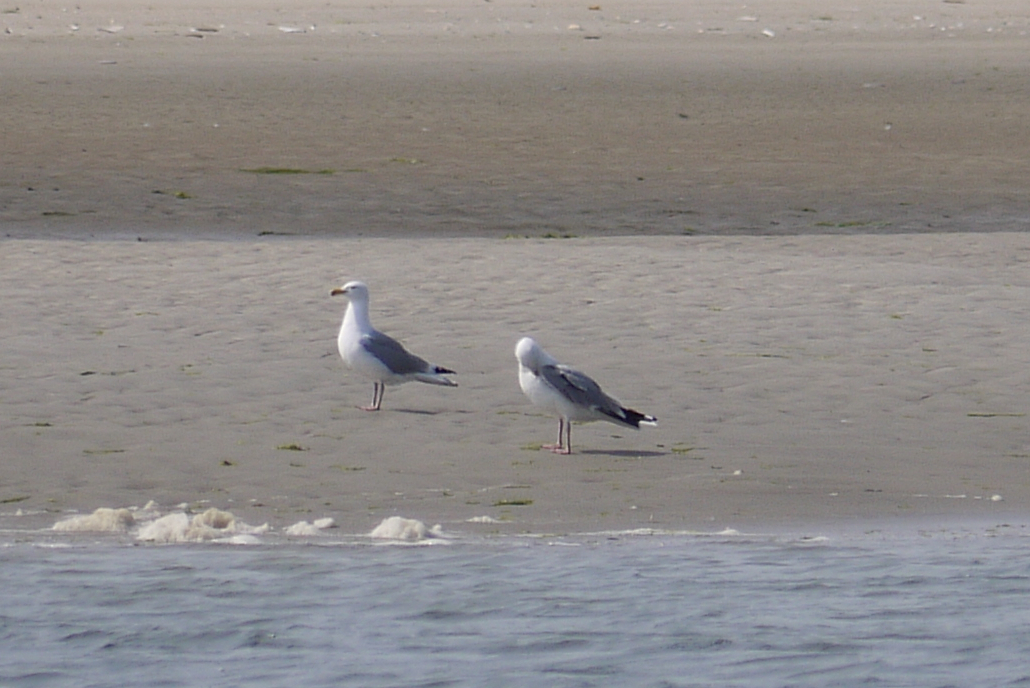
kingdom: Animalia
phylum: Chordata
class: Aves
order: Charadriiformes
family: Laridae
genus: Larus
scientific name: Larus argentatus
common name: Herring gull
